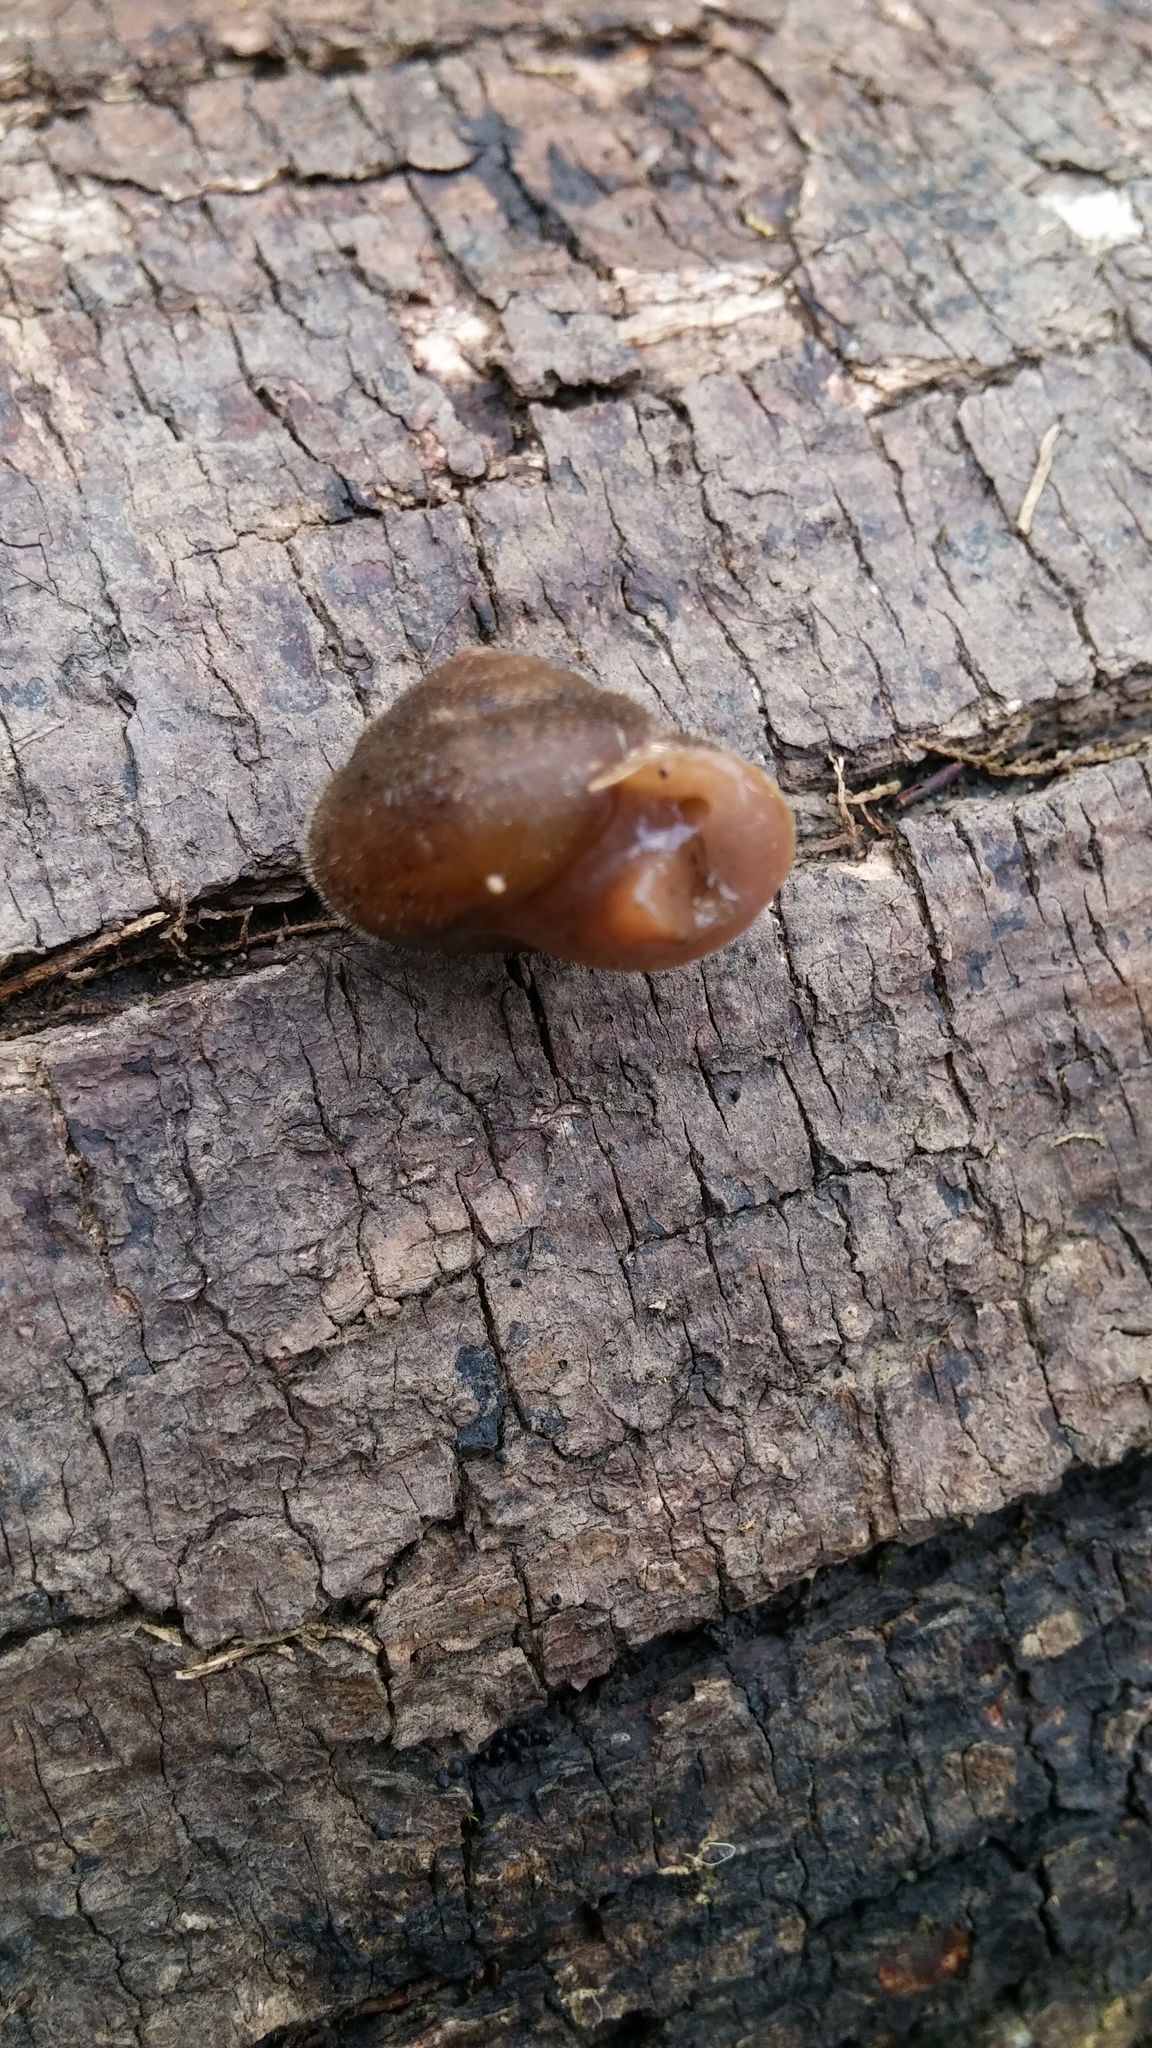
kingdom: Animalia
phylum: Mollusca
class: Gastropoda
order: Stylommatophora
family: Polygyridae
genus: Vespericola
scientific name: Vespericola columbianus
